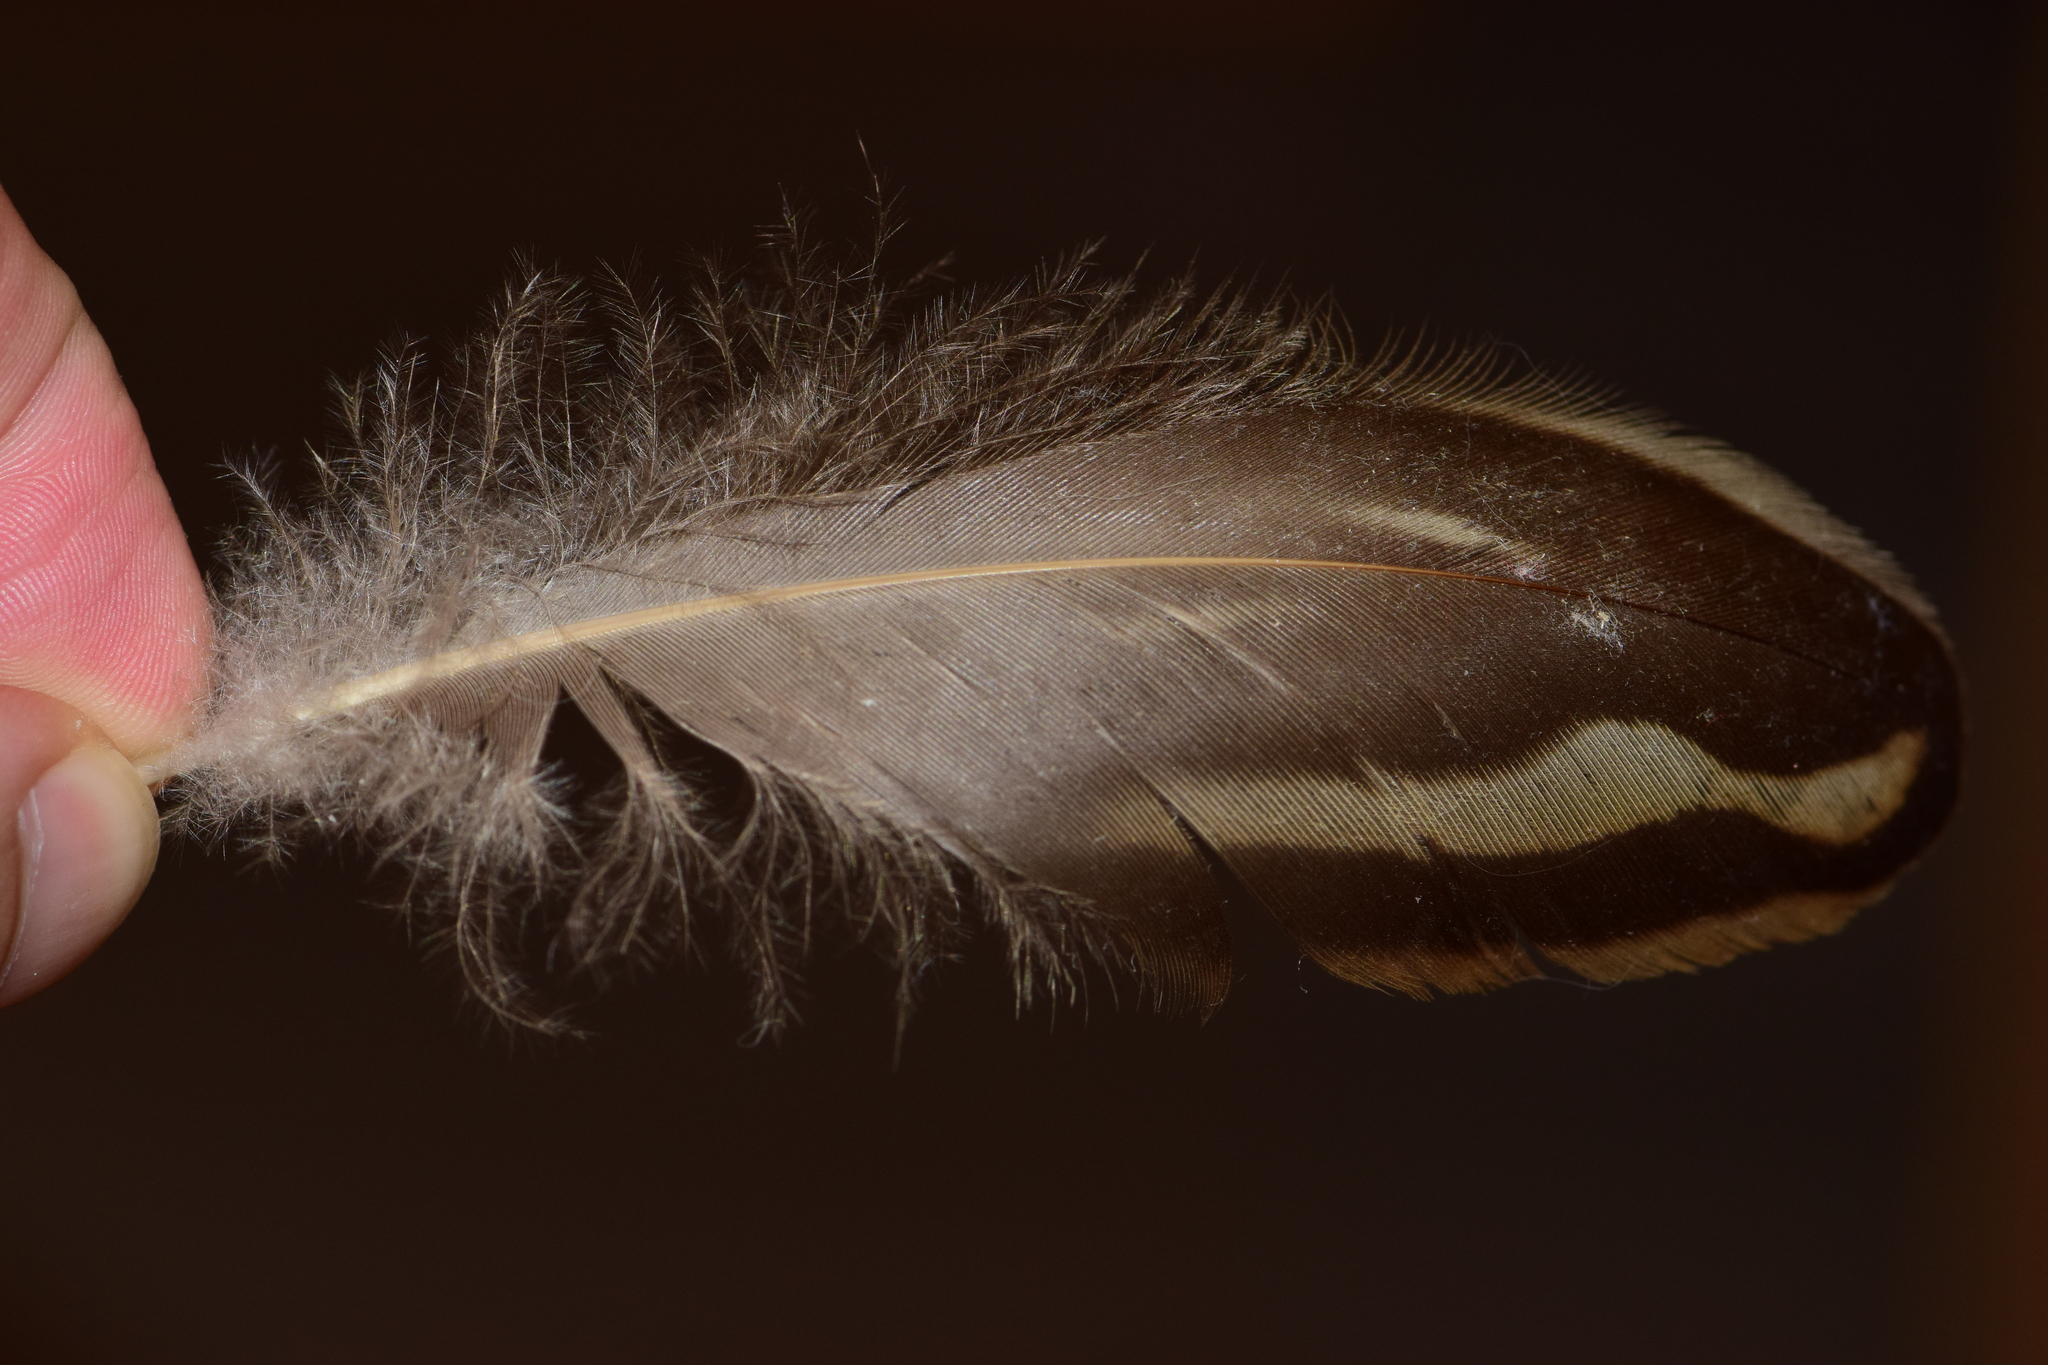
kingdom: Animalia
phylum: Chordata
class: Aves
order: Anseriformes
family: Anatidae
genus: Anas
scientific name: Anas platyrhynchos
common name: Mallard
